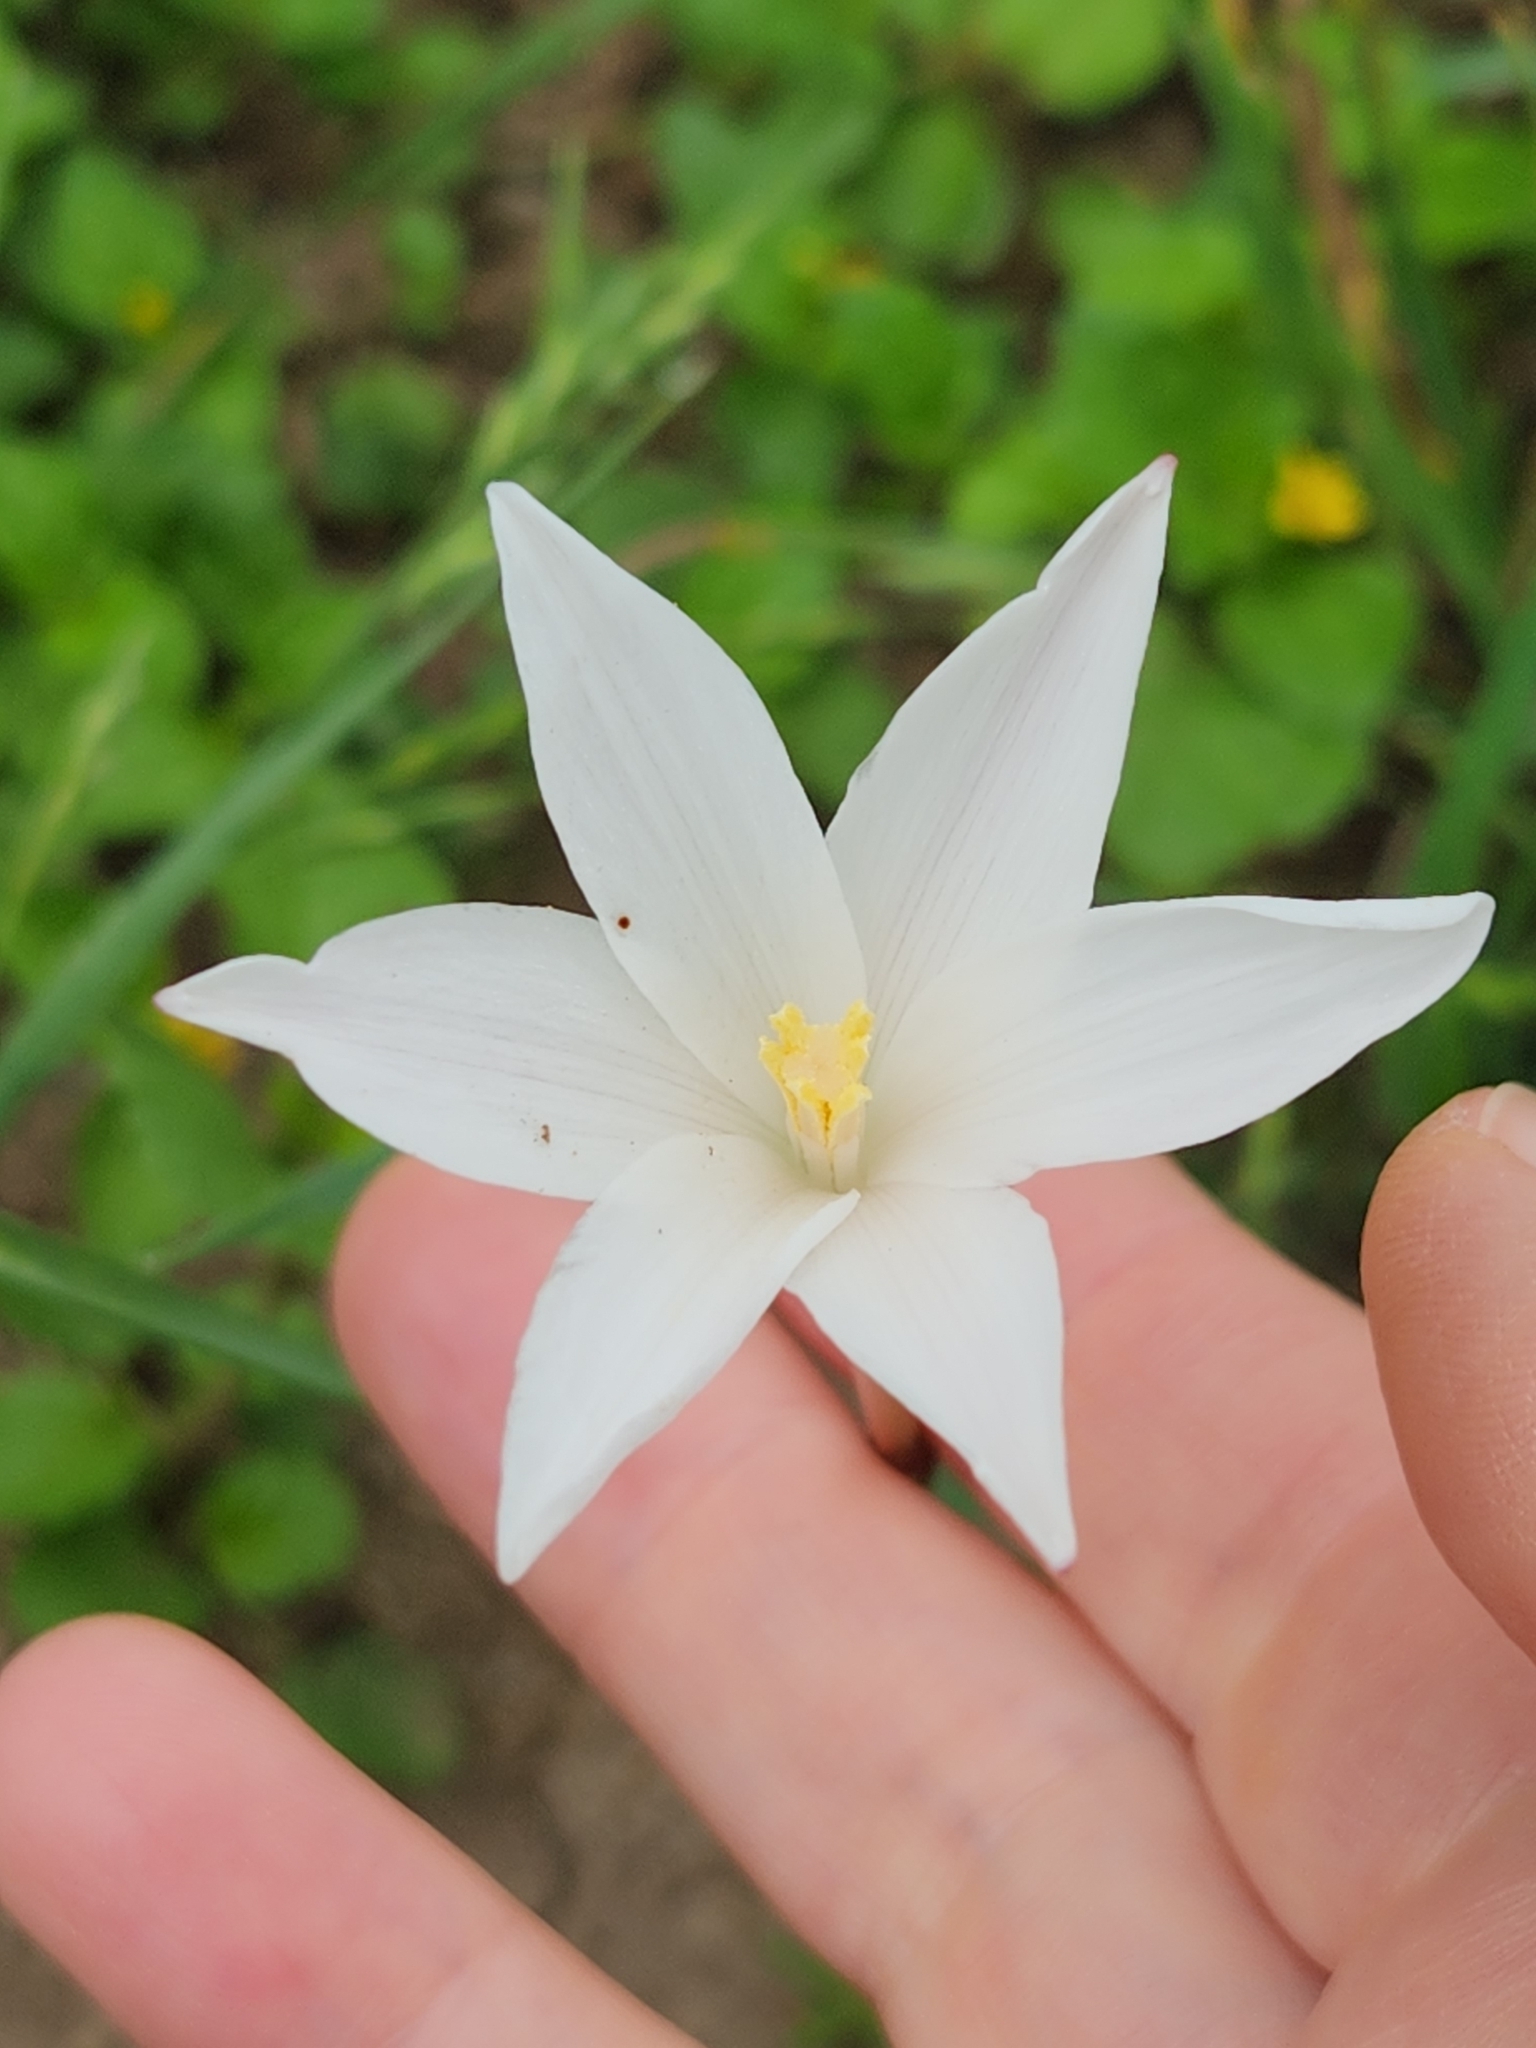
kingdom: Plantae
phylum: Tracheophyta
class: Liliopsida
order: Asparagales
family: Amaryllidaceae
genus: Zephyranthes
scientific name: Zephyranthes chlorosolen
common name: Evening rain-lily
